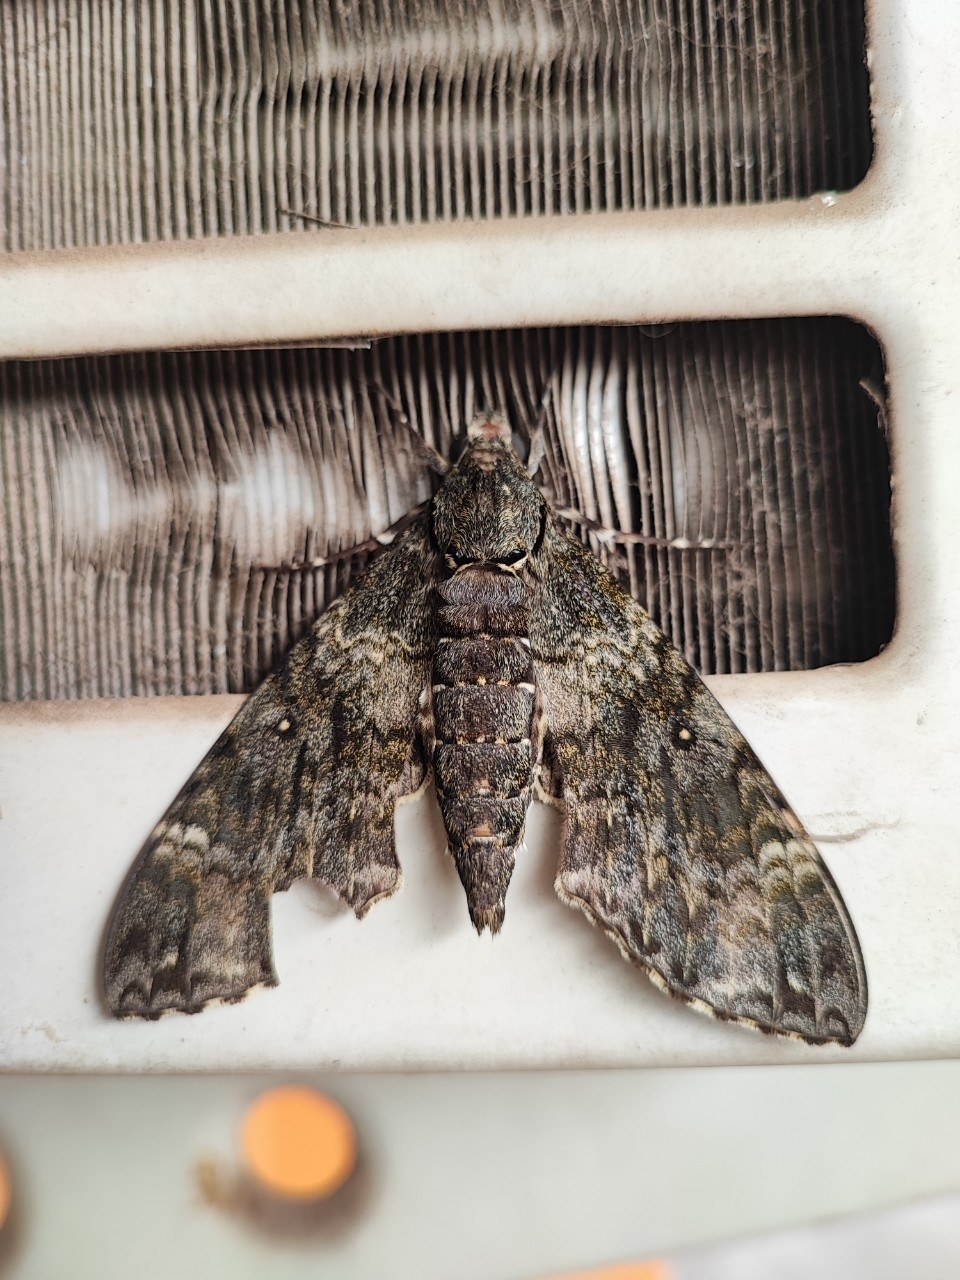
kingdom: Animalia
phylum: Arthropoda
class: Insecta
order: Lepidoptera
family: Sphingidae
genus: Meganoton
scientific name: Meganoton nyctiphanes
